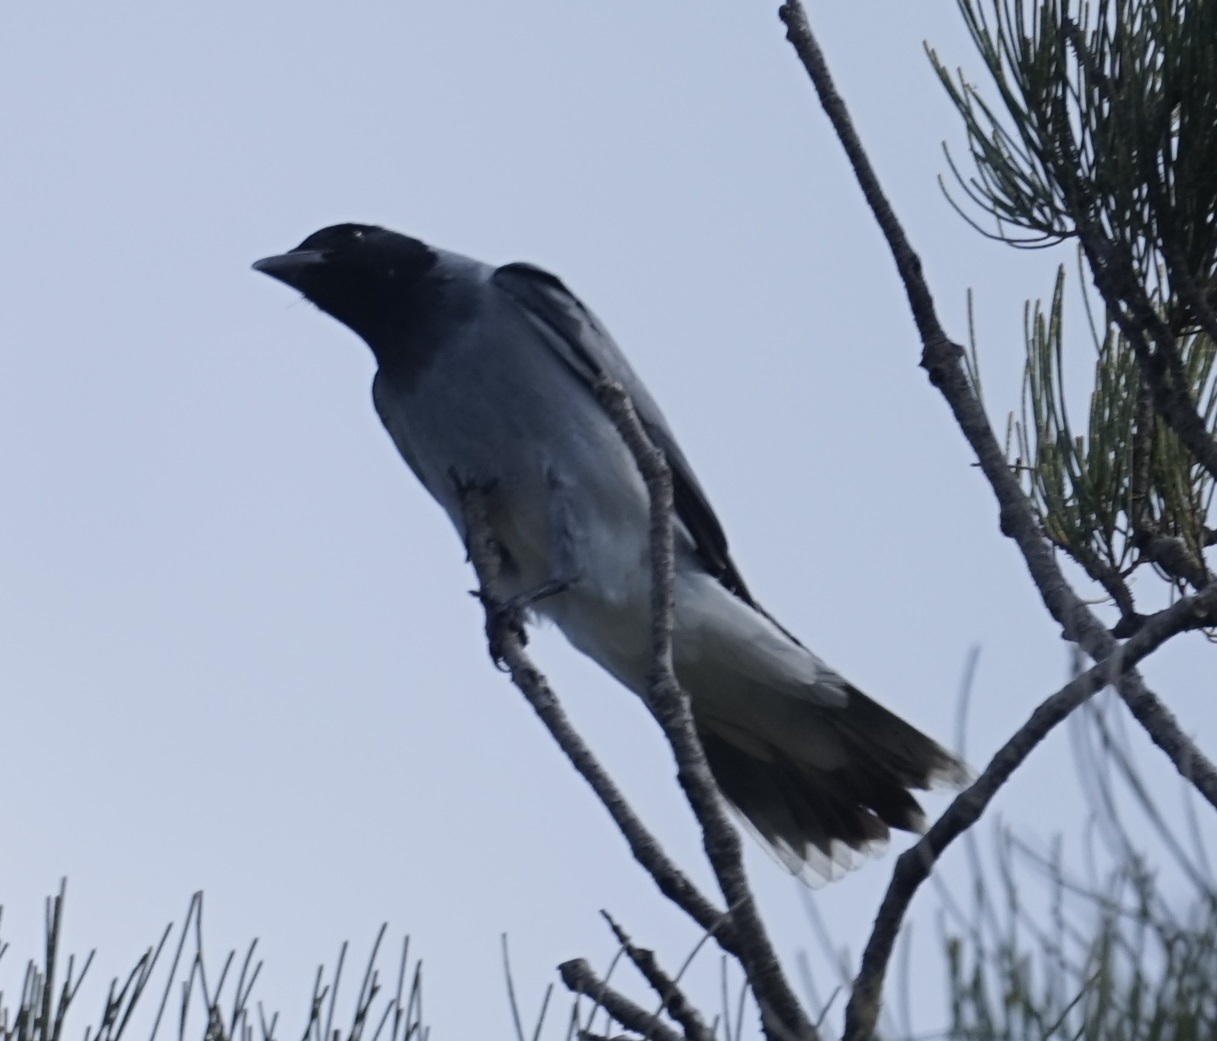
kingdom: Animalia
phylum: Chordata
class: Aves
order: Passeriformes
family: Campephagidae
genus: Coracina
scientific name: Coracina novaehollandiae
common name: Black-faced cuckooshrike
